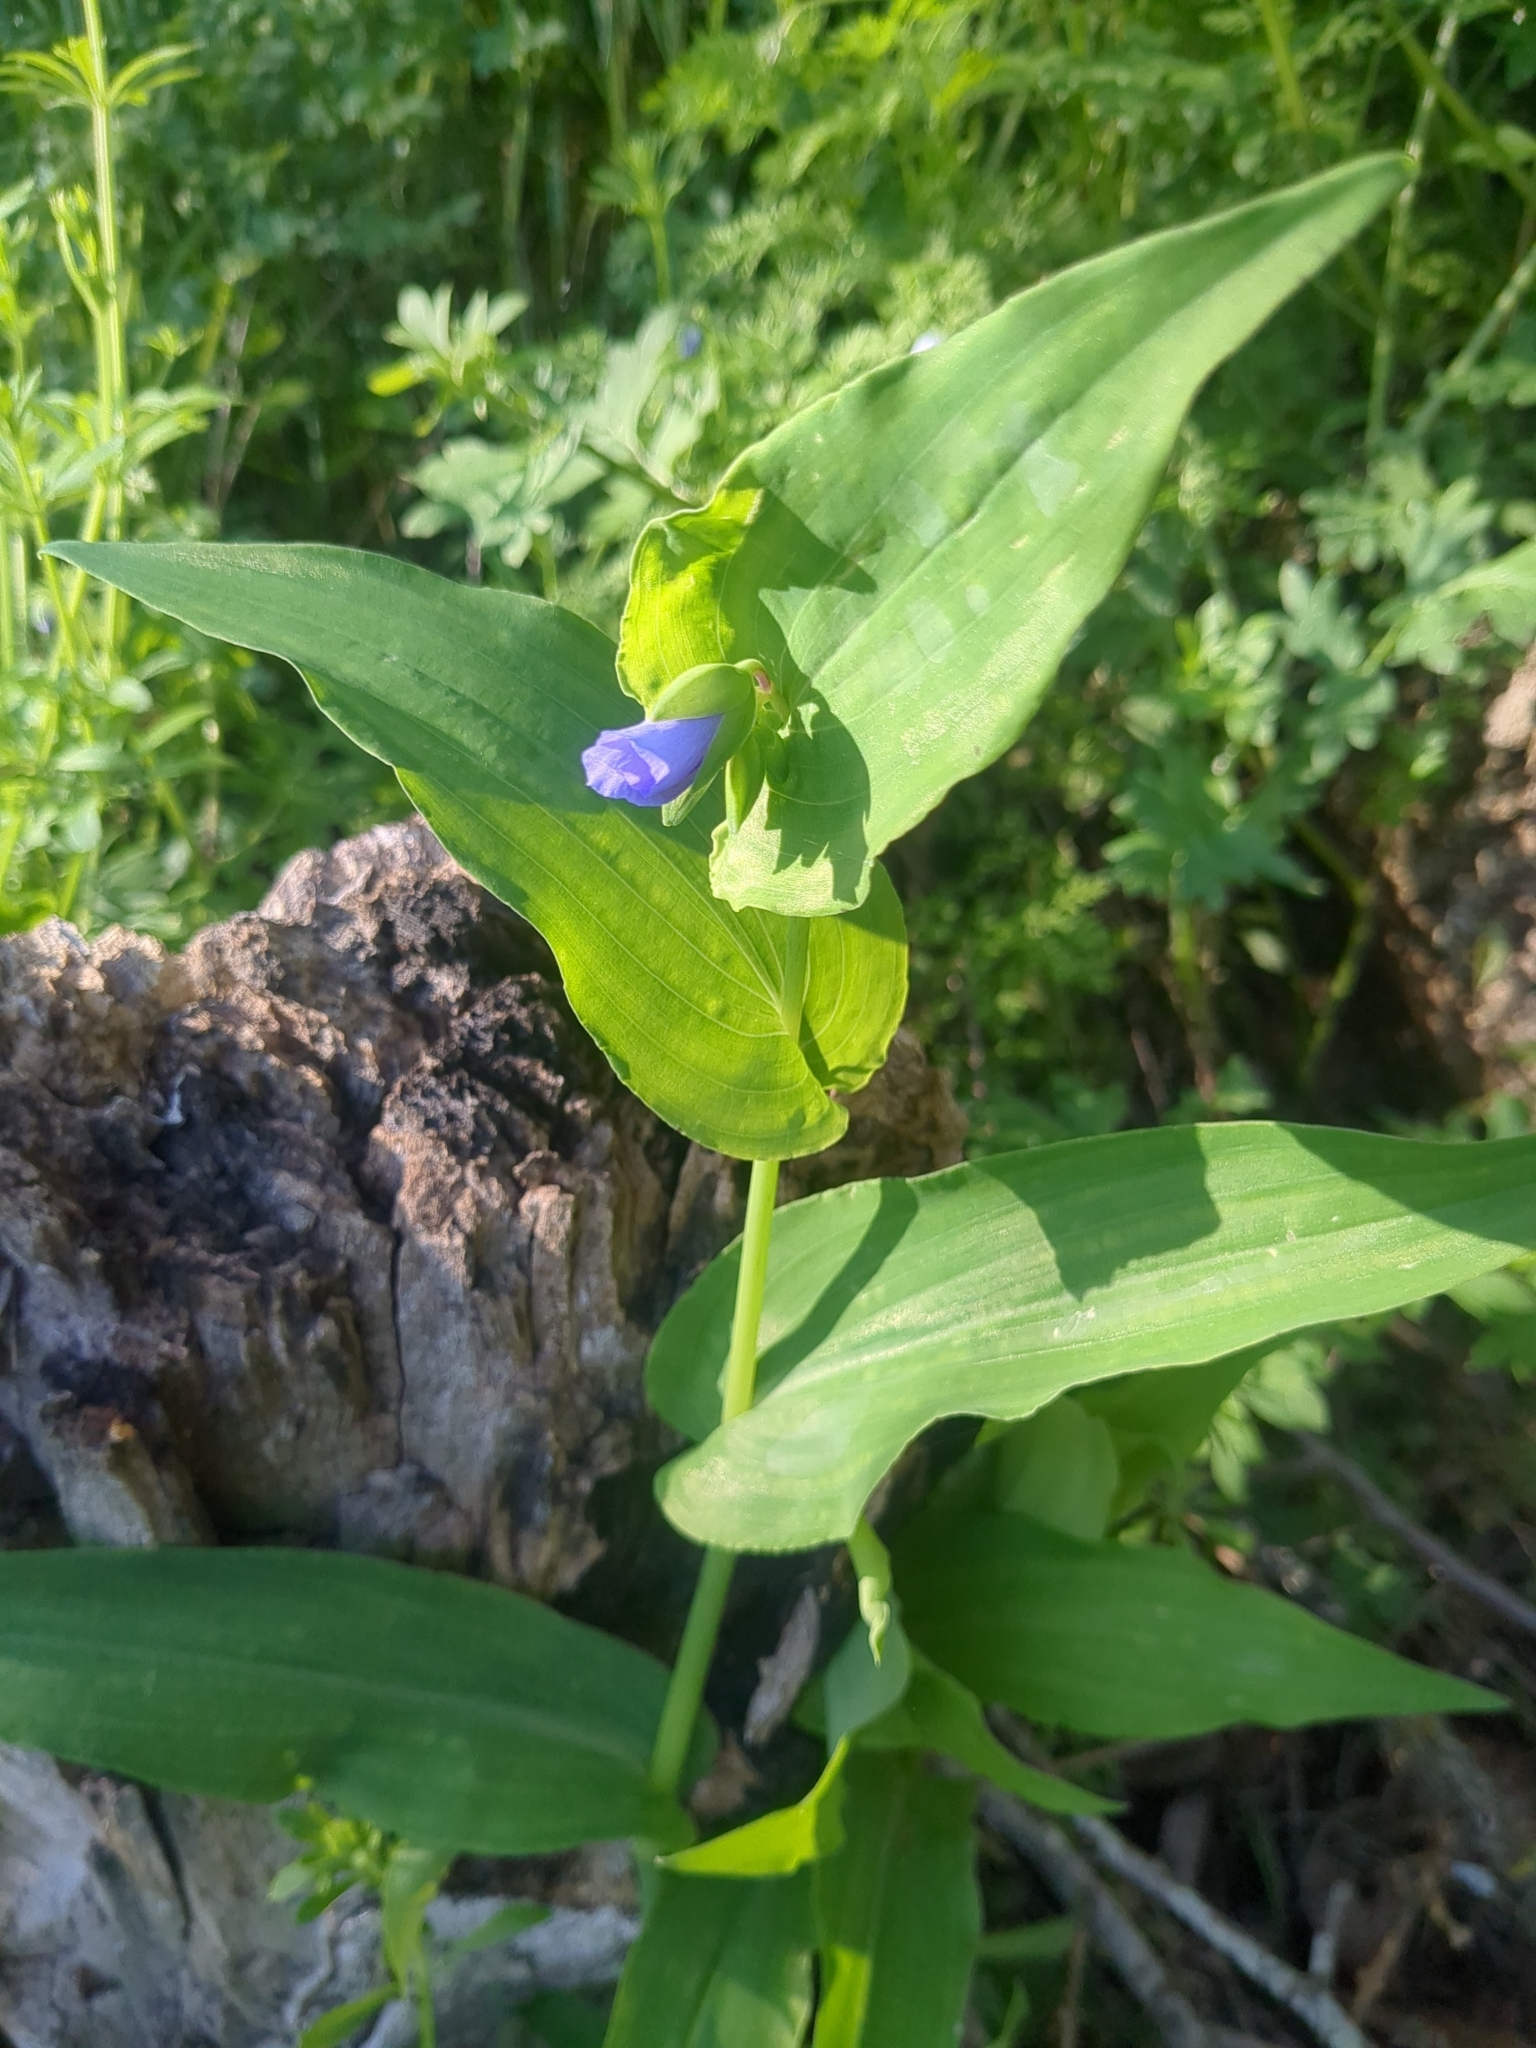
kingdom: Plantae
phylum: Tracheophyta
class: Liliopsida
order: Commelinales
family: Commelinaceae
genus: Tinantia
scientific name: Tinantia anomala
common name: False dayflower
